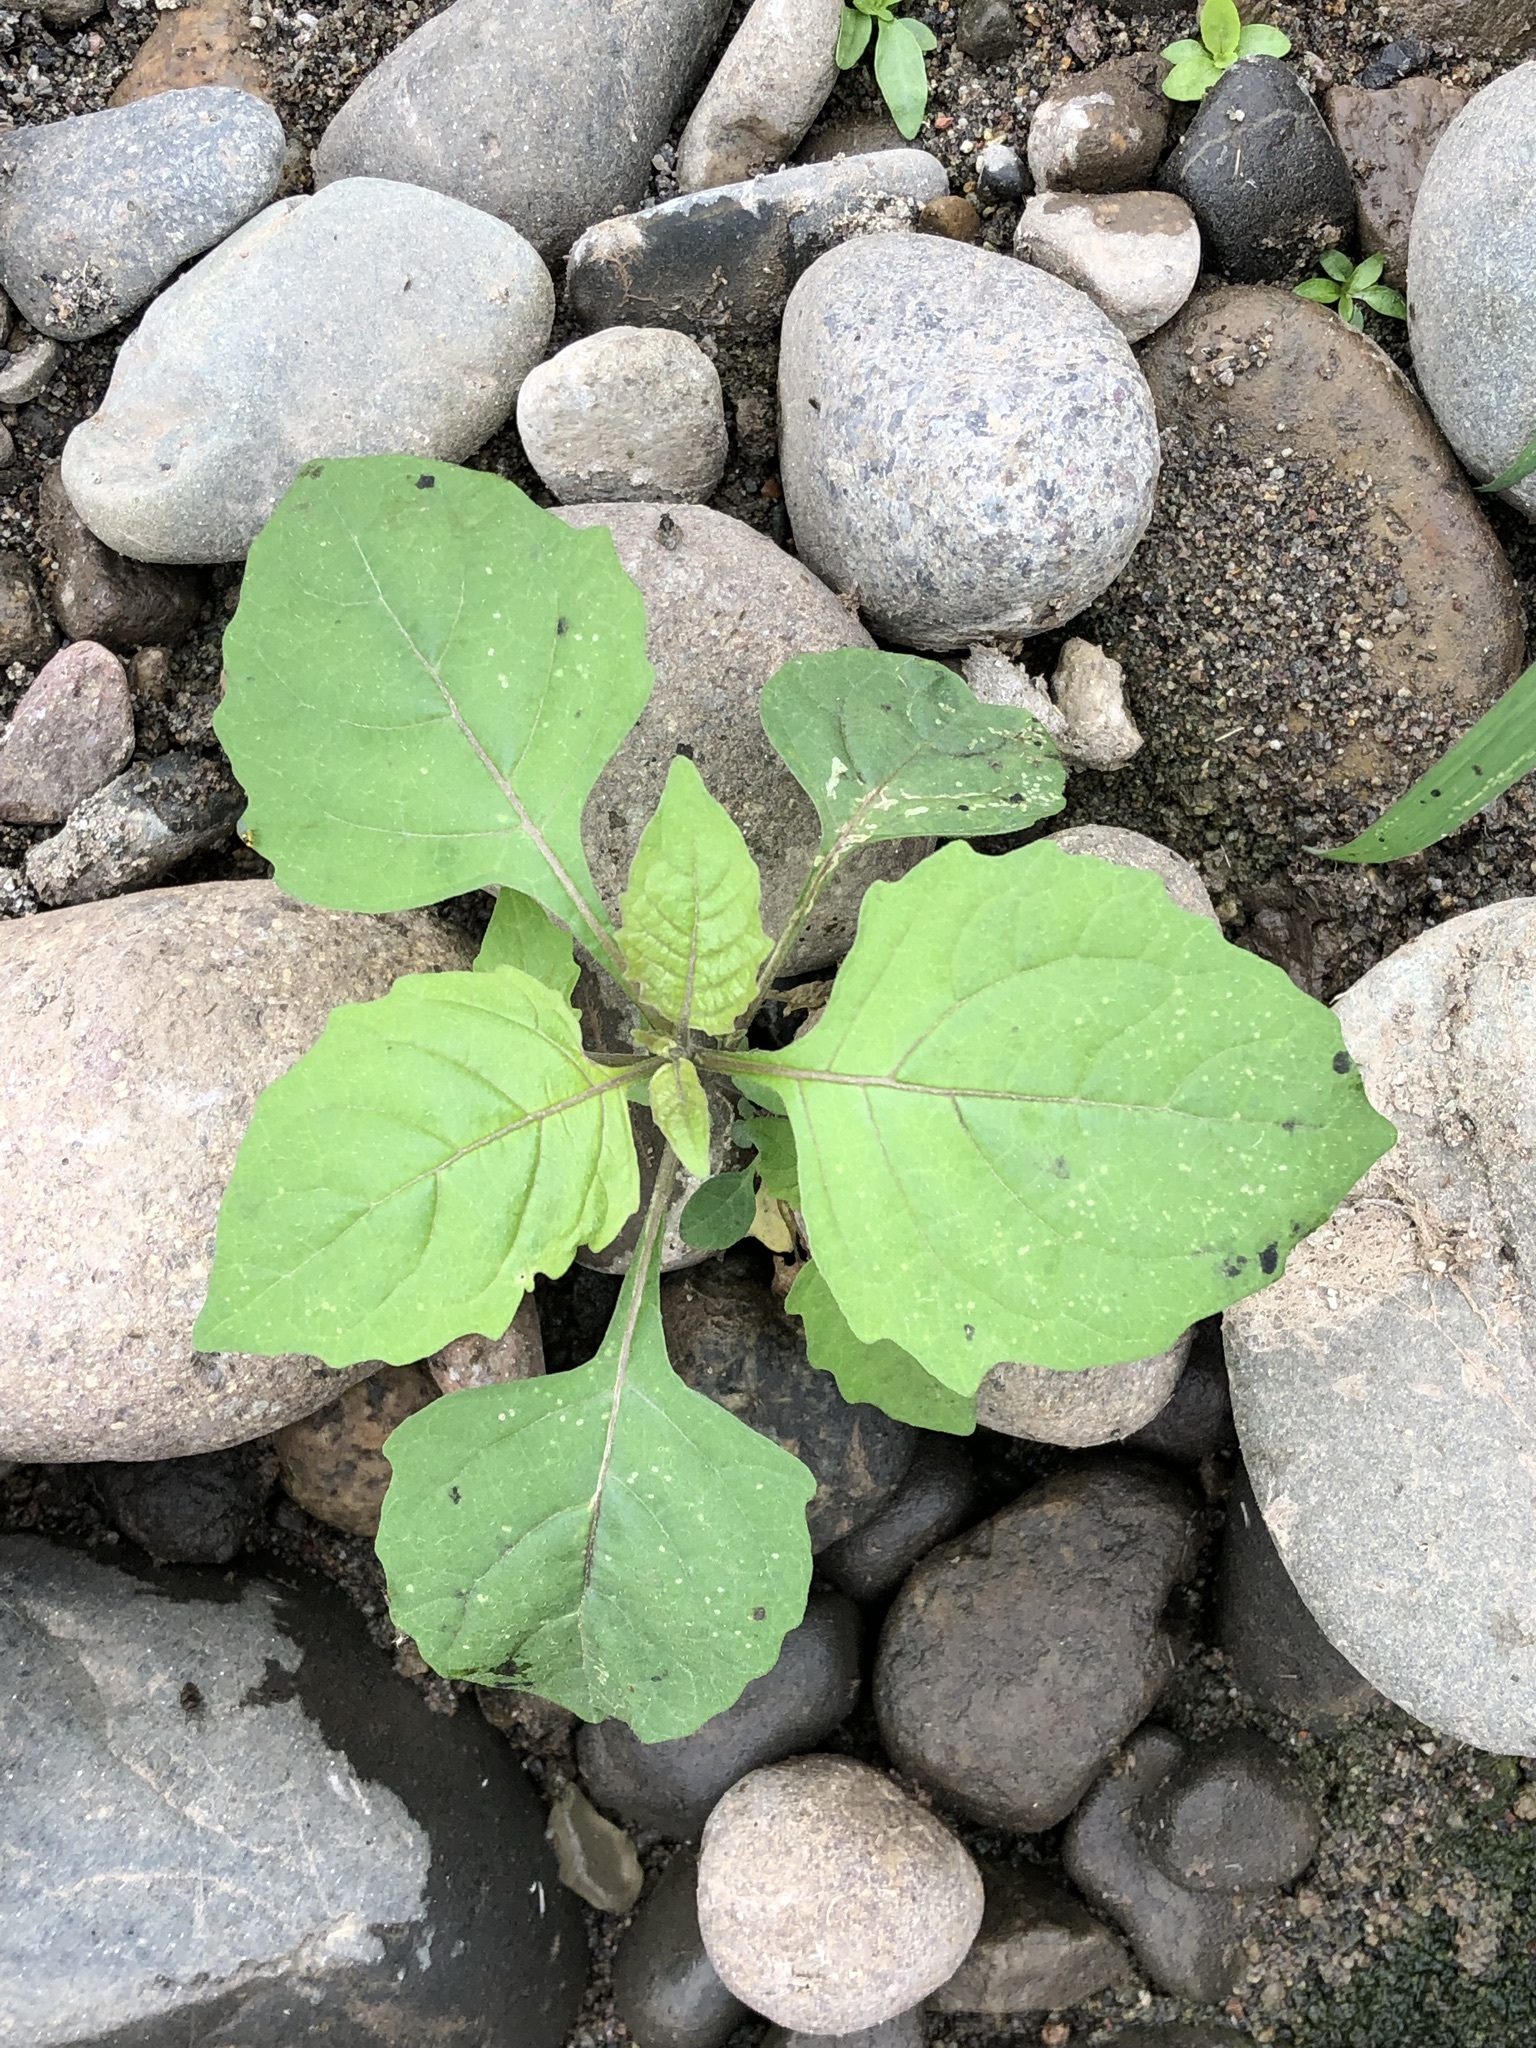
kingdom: Plantae
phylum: Tracheophyta
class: Magnoliopsida
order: Solanales
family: Solanaceae
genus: Solanum
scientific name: Solanum
